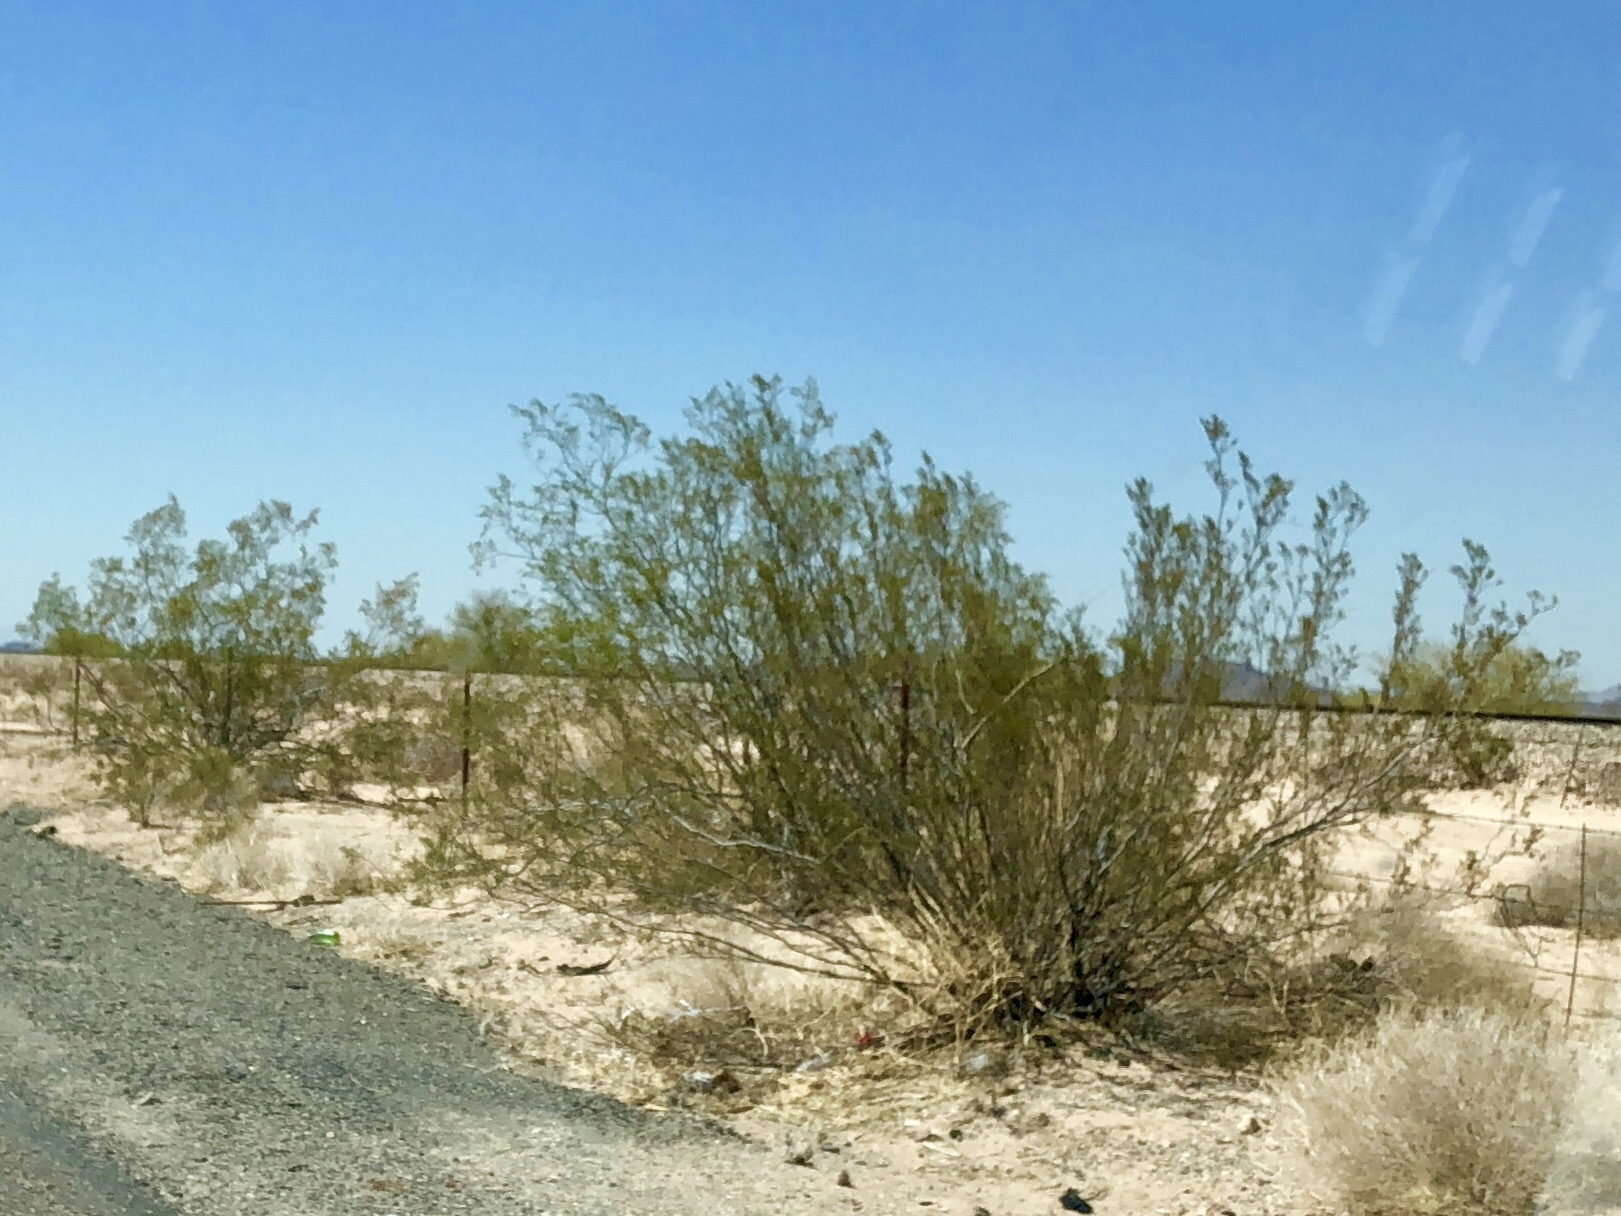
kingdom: Plantae
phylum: Tracheophyta
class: Magnoliopsida
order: Zygophyllales
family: Zygophyllaceae
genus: Larrea
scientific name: Larrea tridentata
